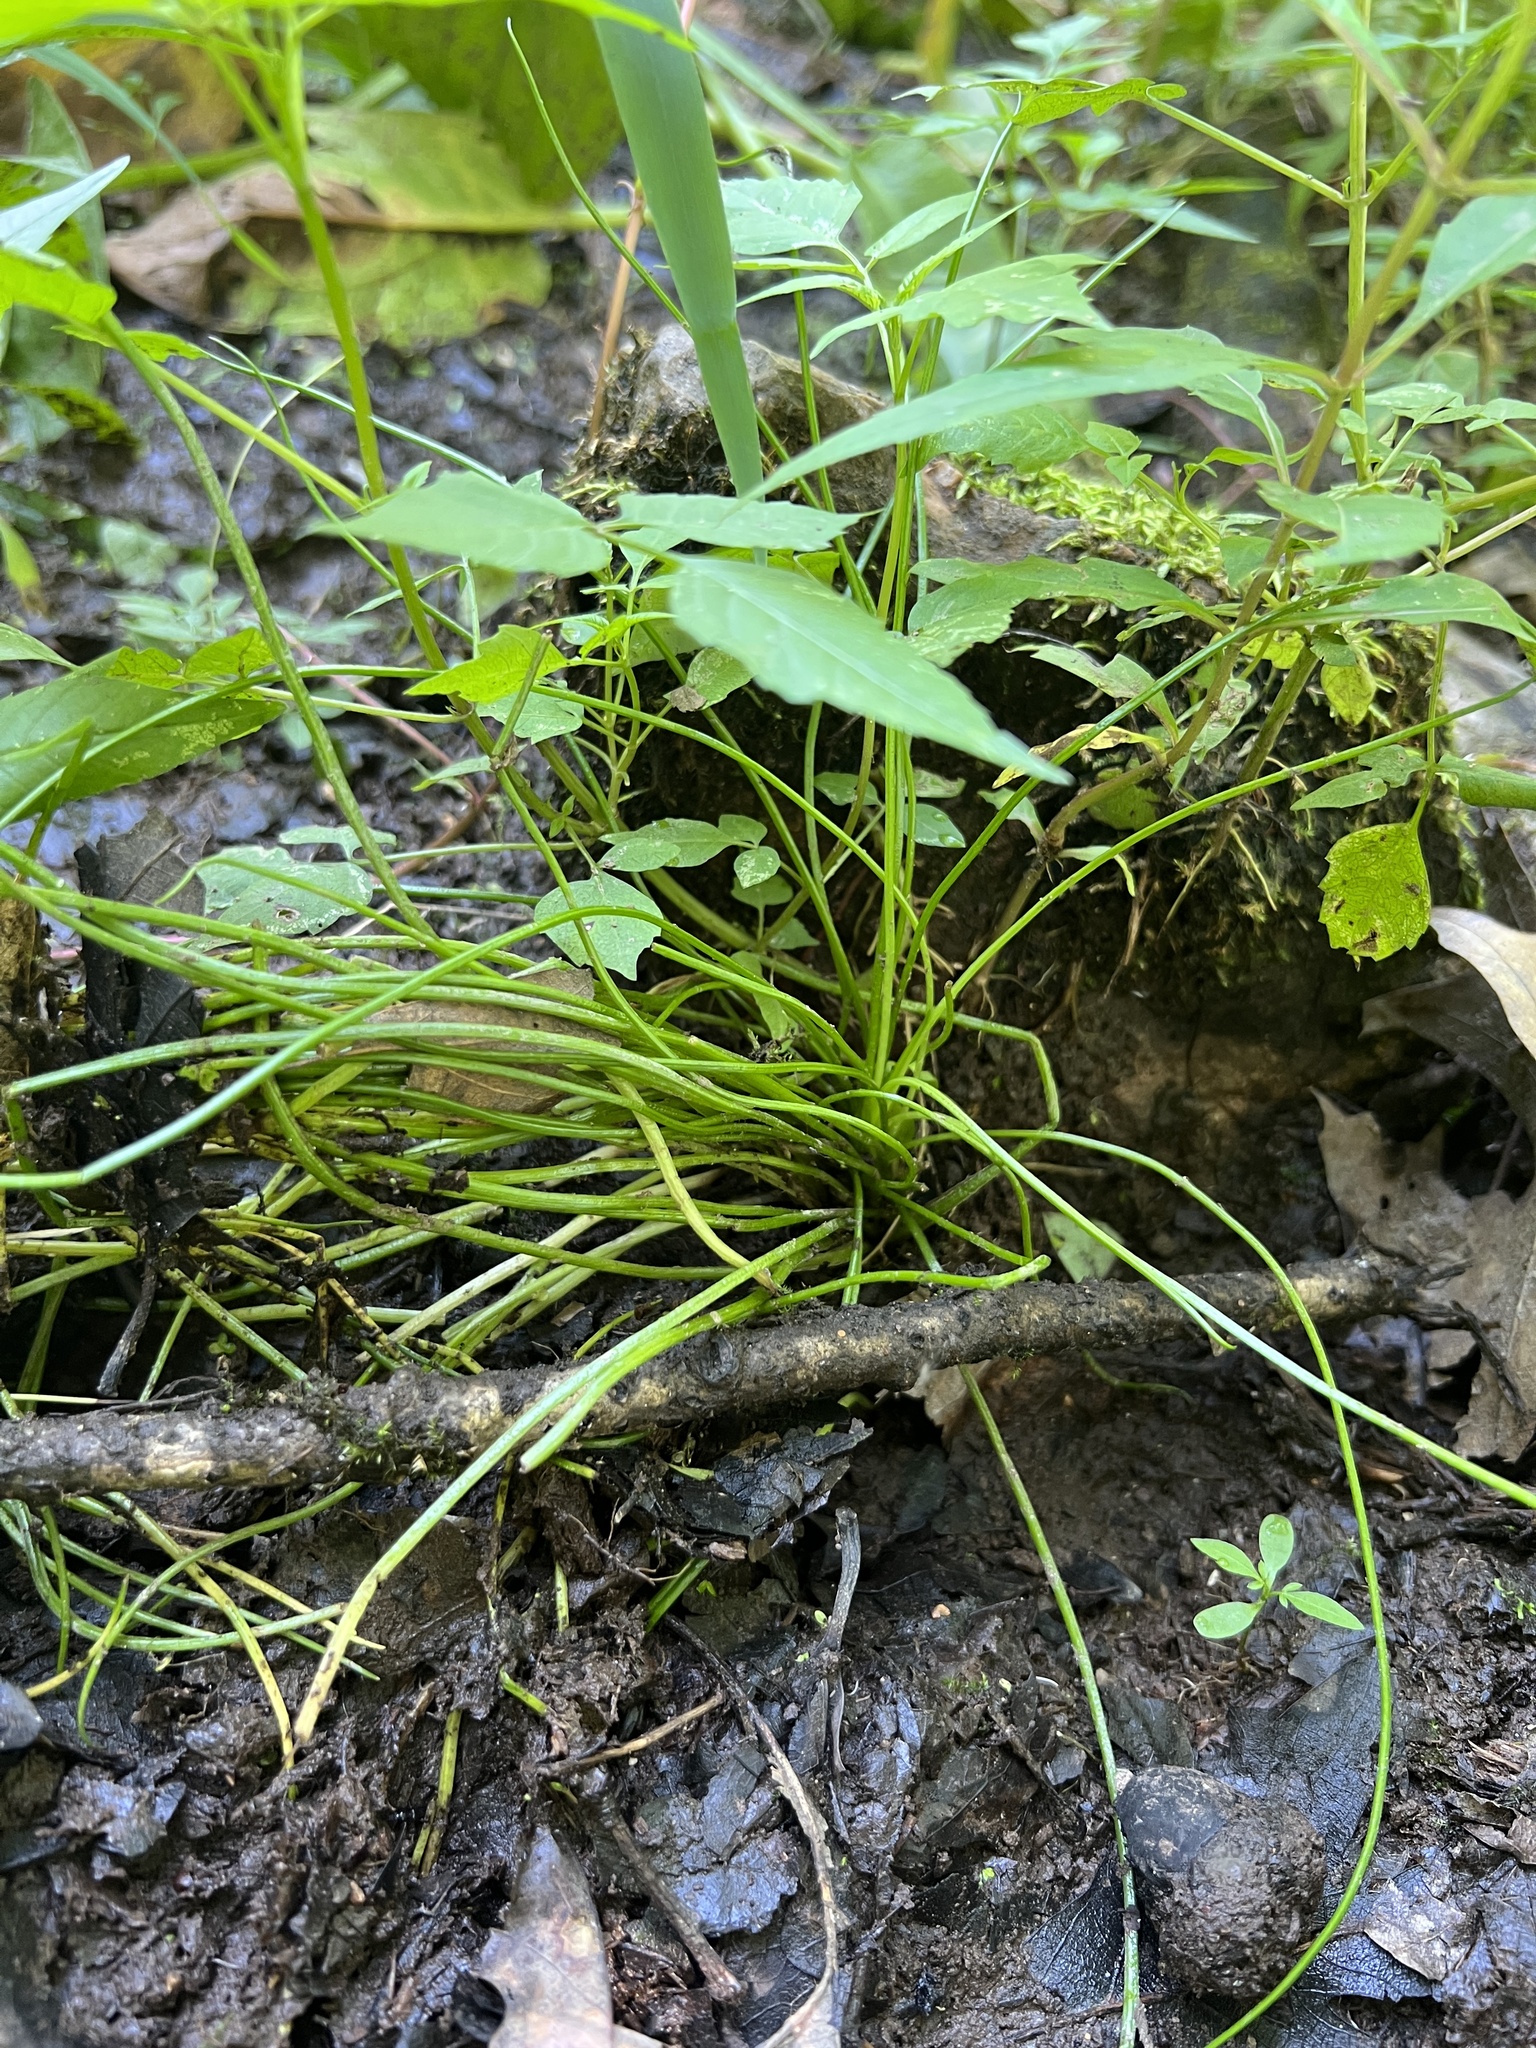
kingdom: Plantae
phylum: Tracheophyta
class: Lycopodiopsida
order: Isoetales
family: Isoetaceae
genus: Isoetes
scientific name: Isoetes engelmannii
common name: Engelmann's quillwort
